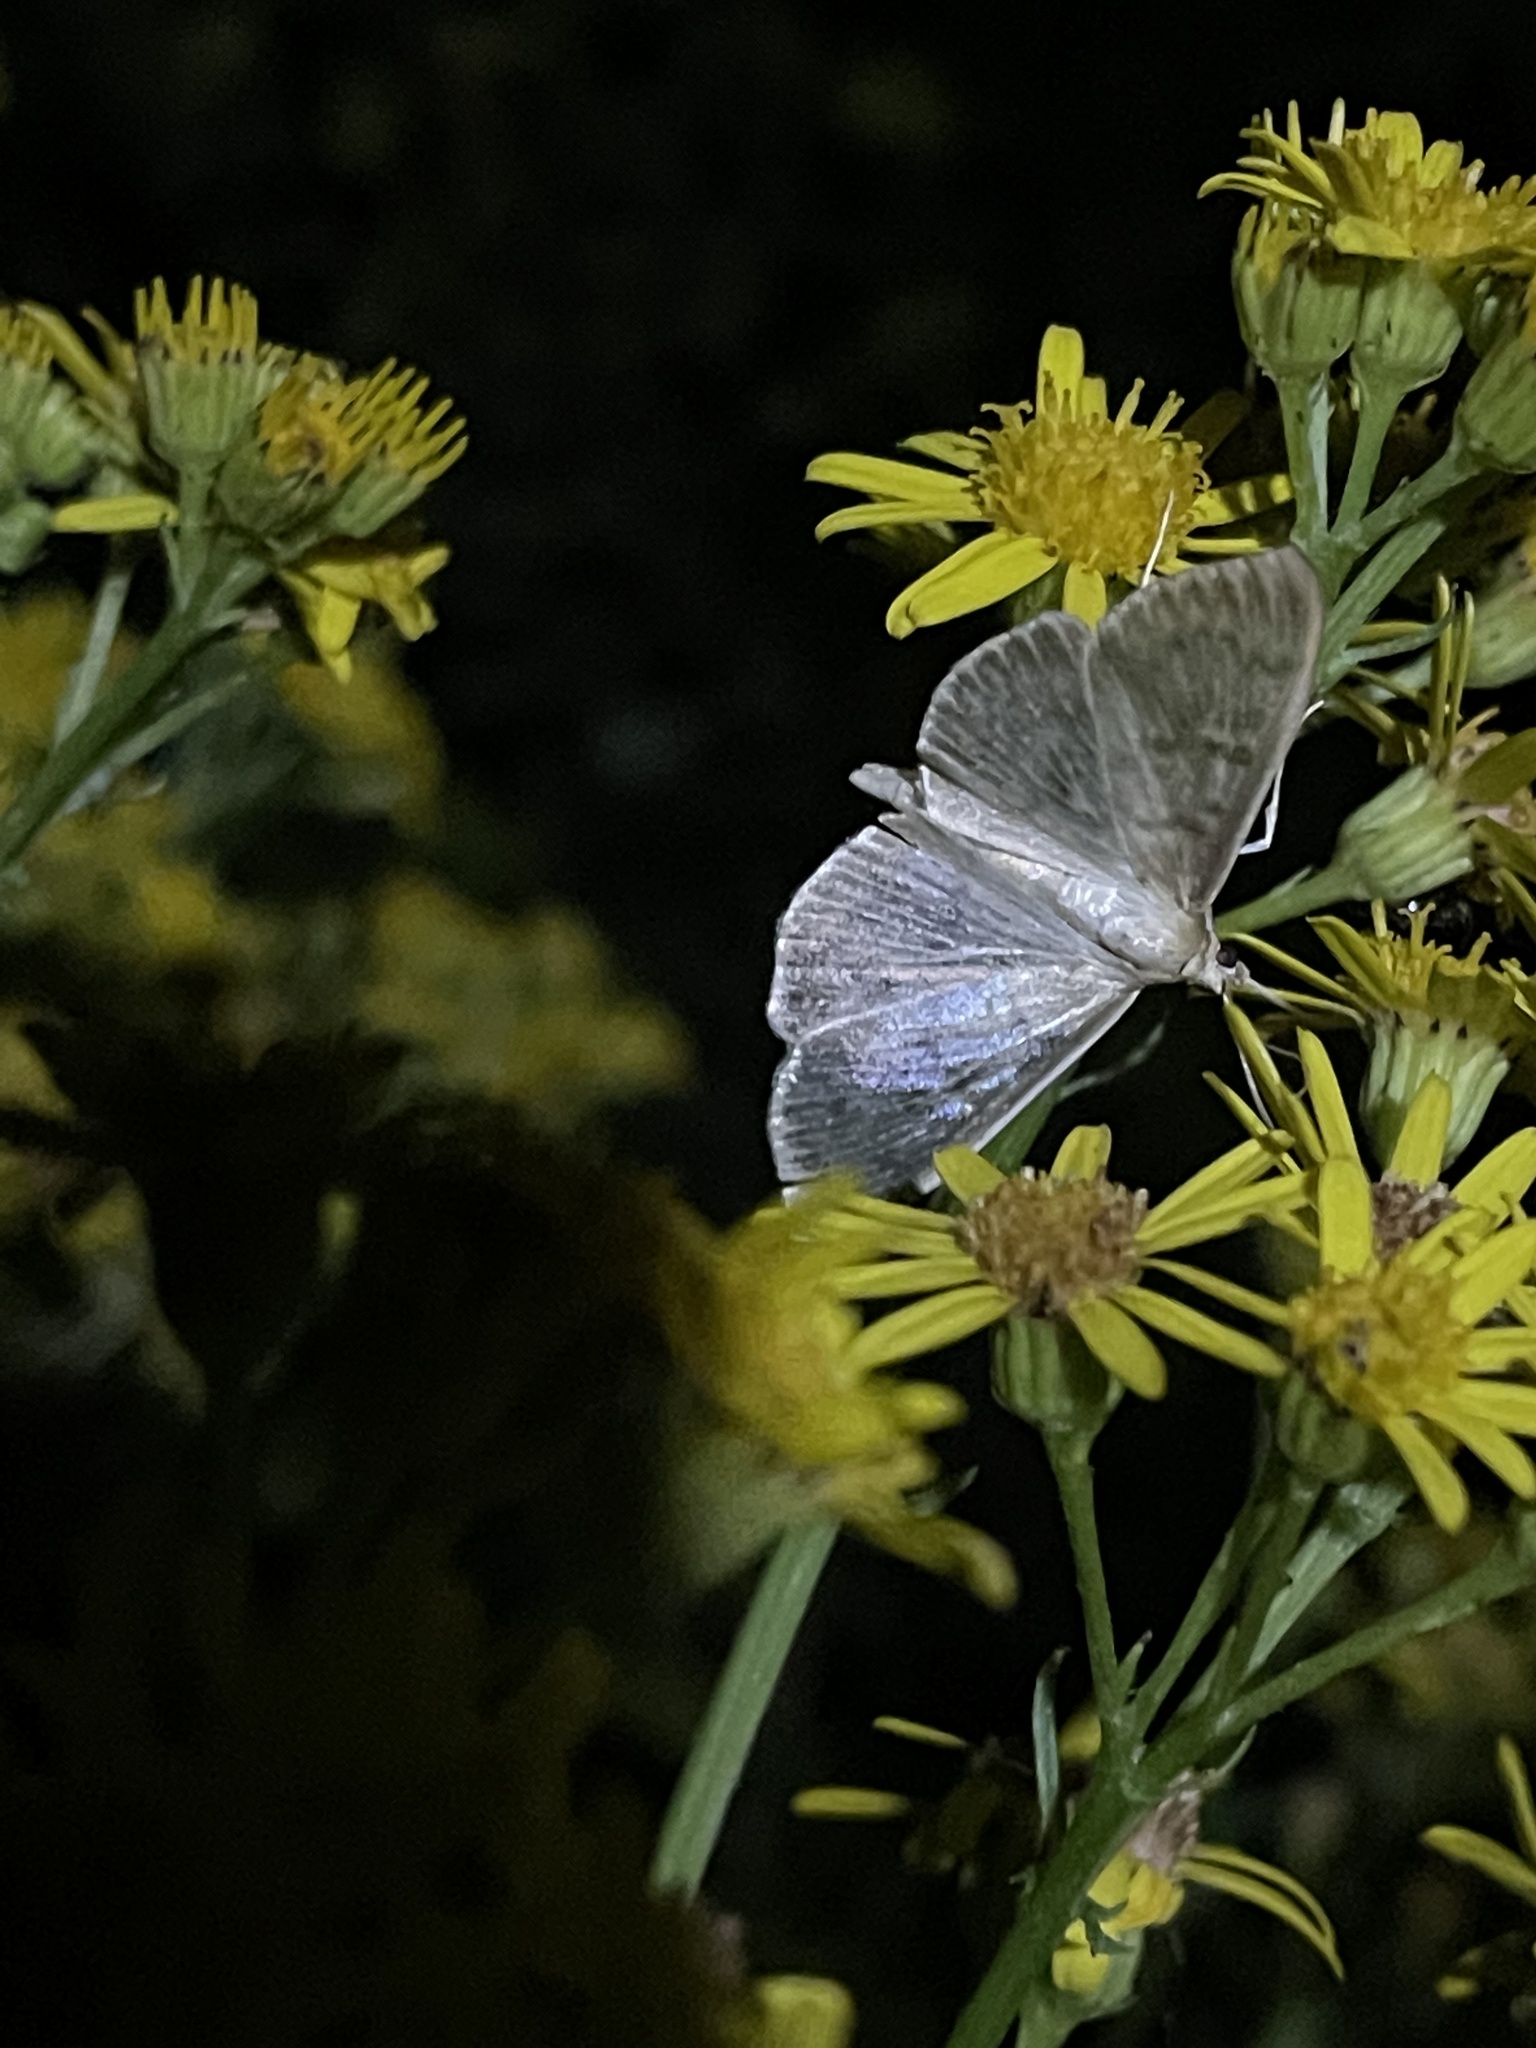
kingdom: Animalia
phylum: Arthropoda
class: Insecta
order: Lepidoptera
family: Crambidae
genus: Patania
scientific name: Patania ruralis
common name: Mother of pearl
